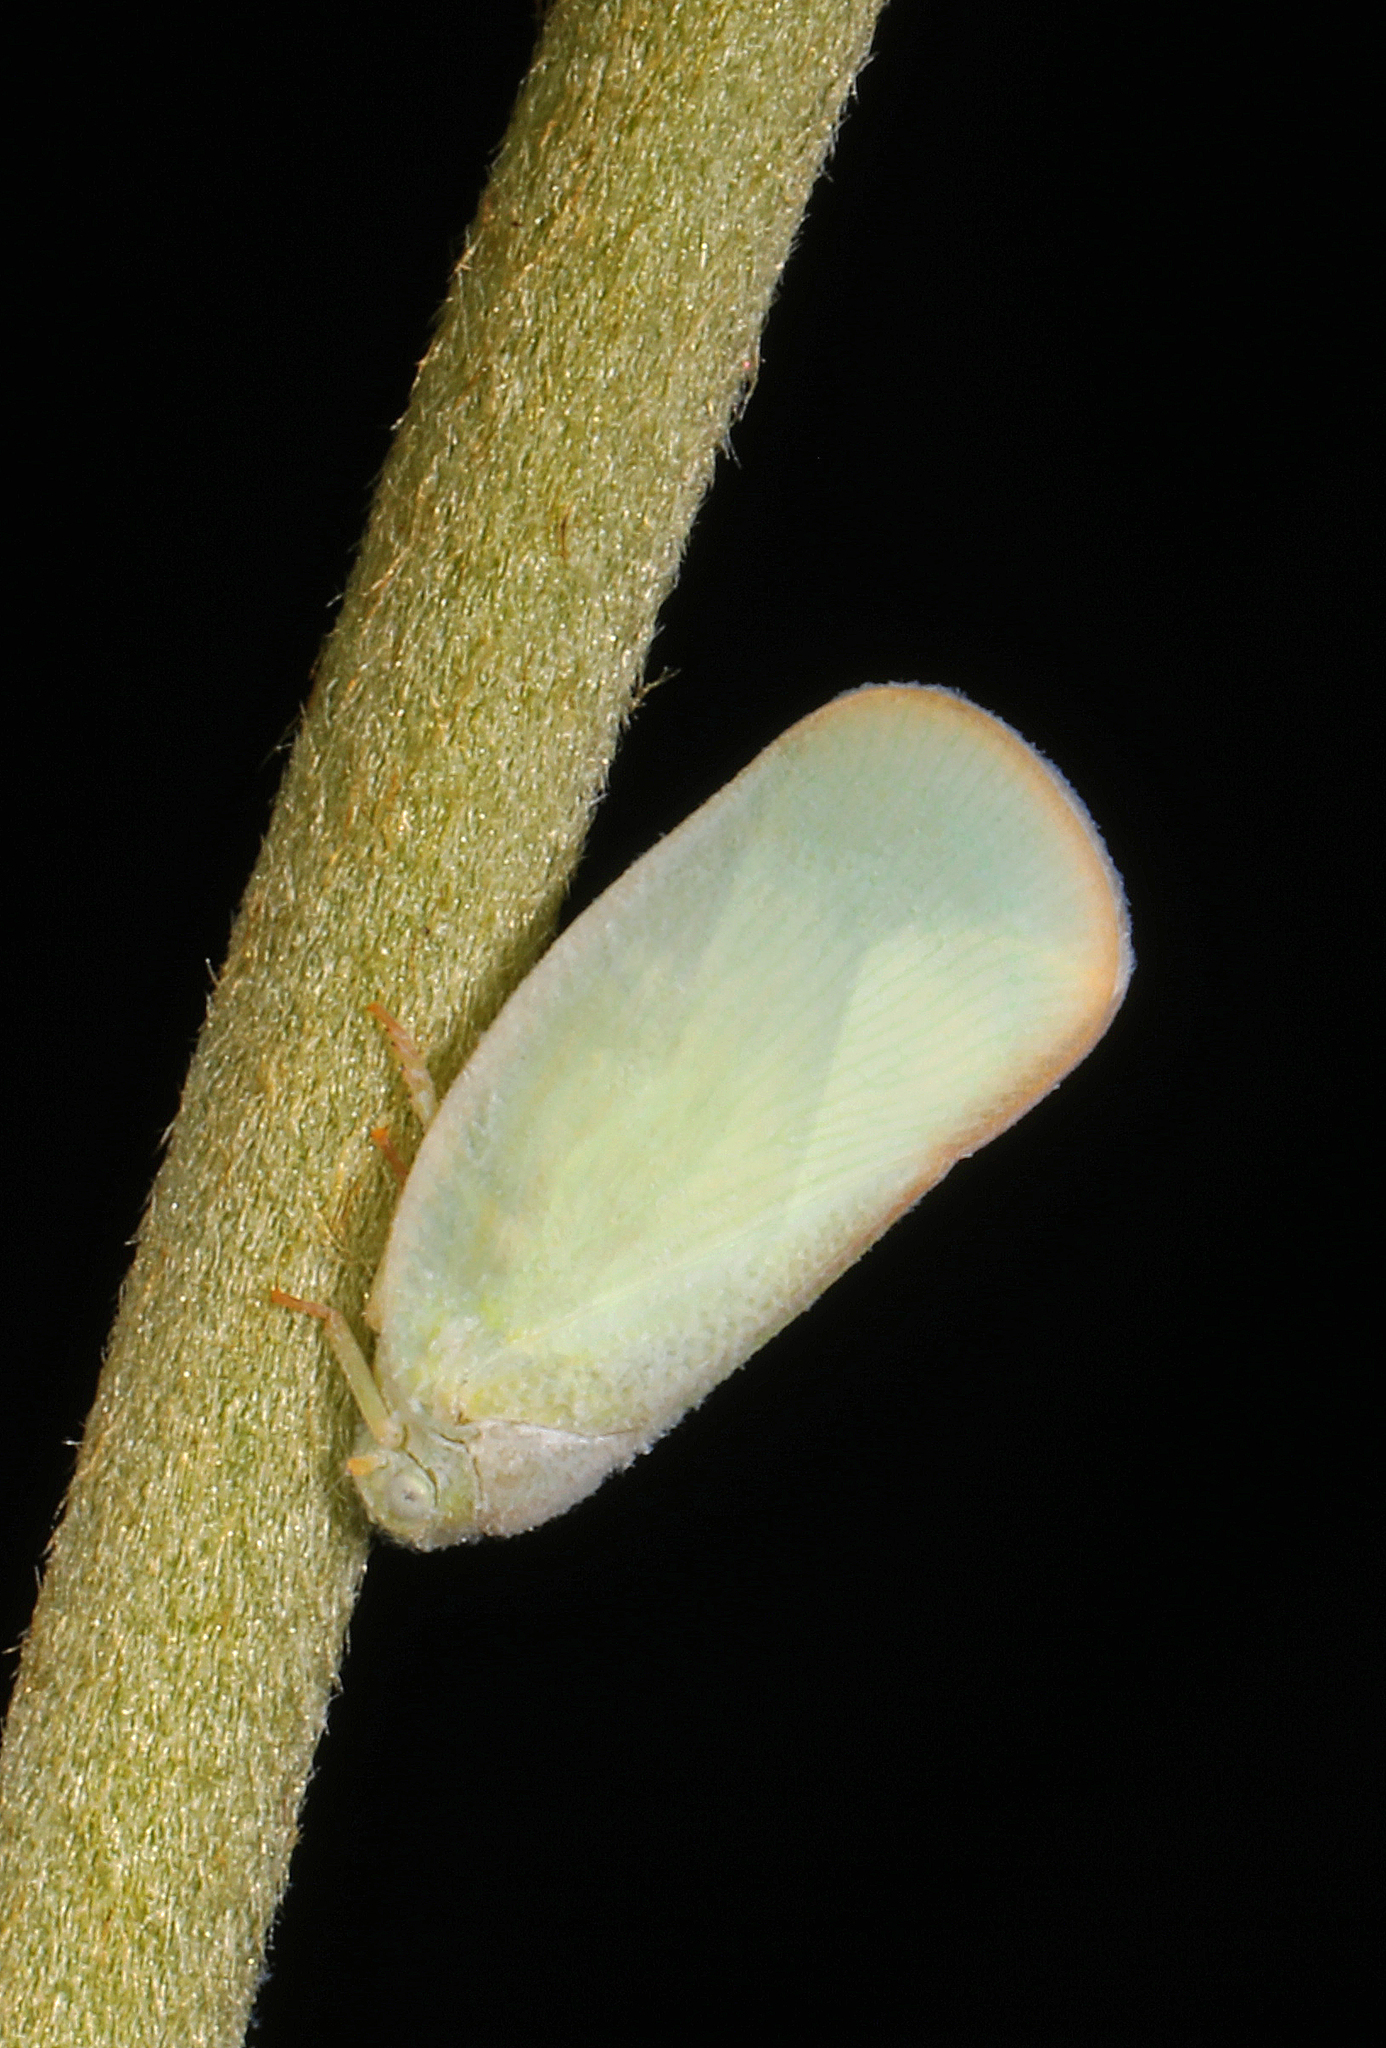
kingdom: Animalia
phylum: Arthropoda
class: Insecta
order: Hemiptera
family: Flatidae
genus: Ormenoides
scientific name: Ormenoides venusta
